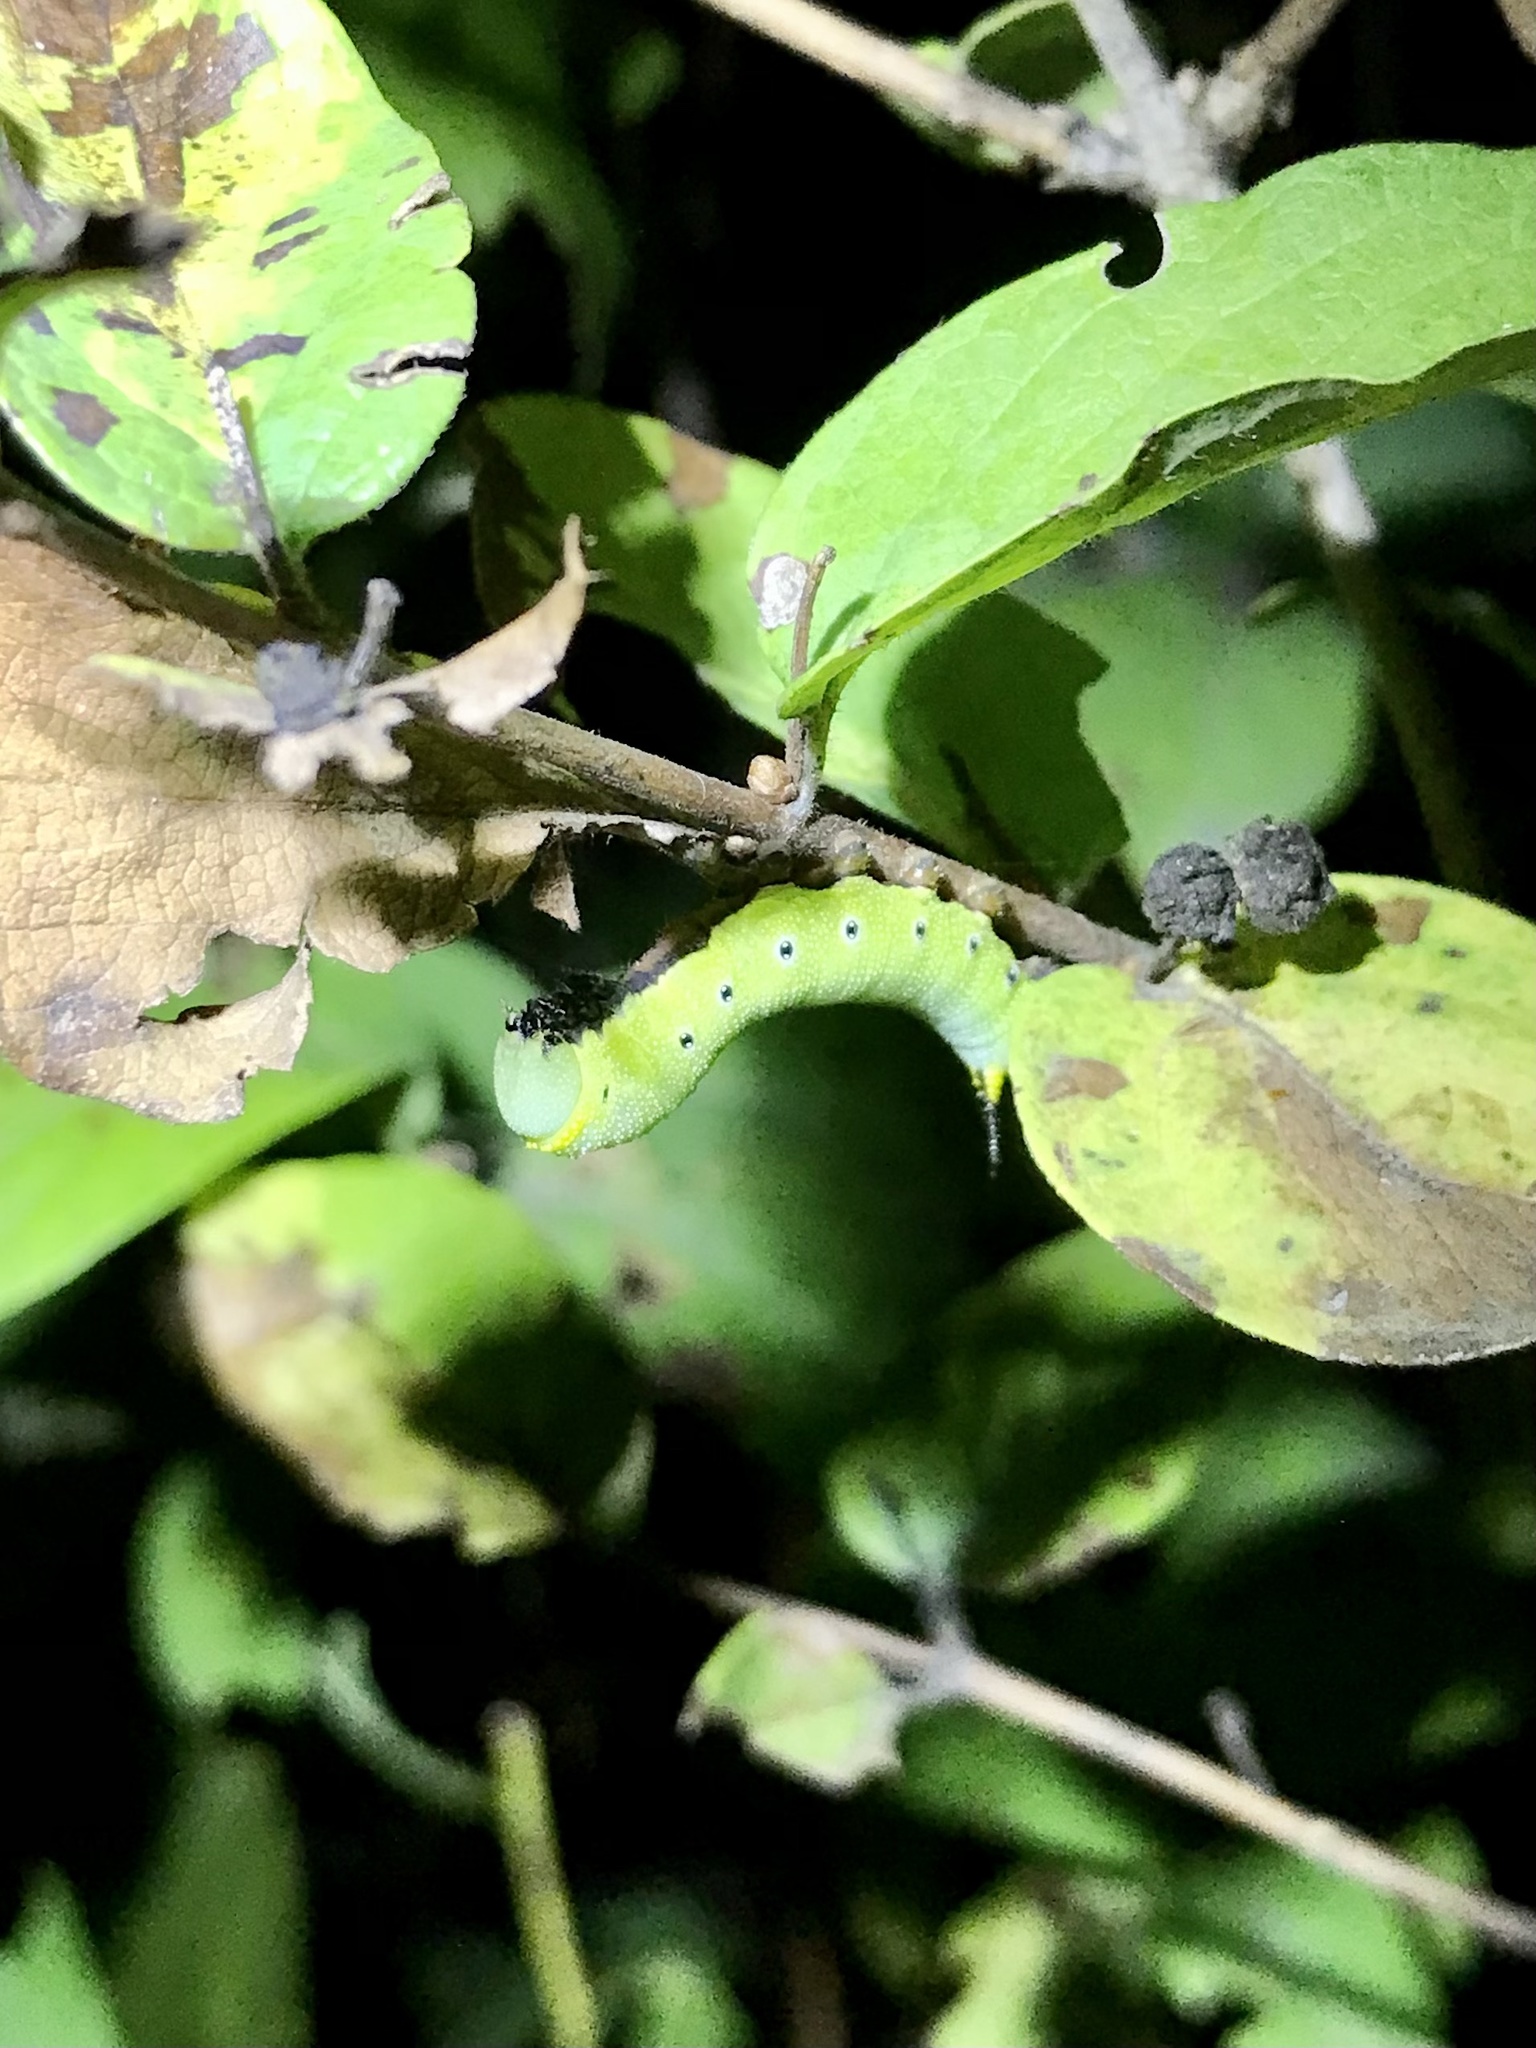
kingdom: Animalia
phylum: Arthropoda
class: Insecta
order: Lepidoptera
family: Sphingidae
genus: Hemaris
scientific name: Hemaris diffinis
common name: Bumblebee moth
